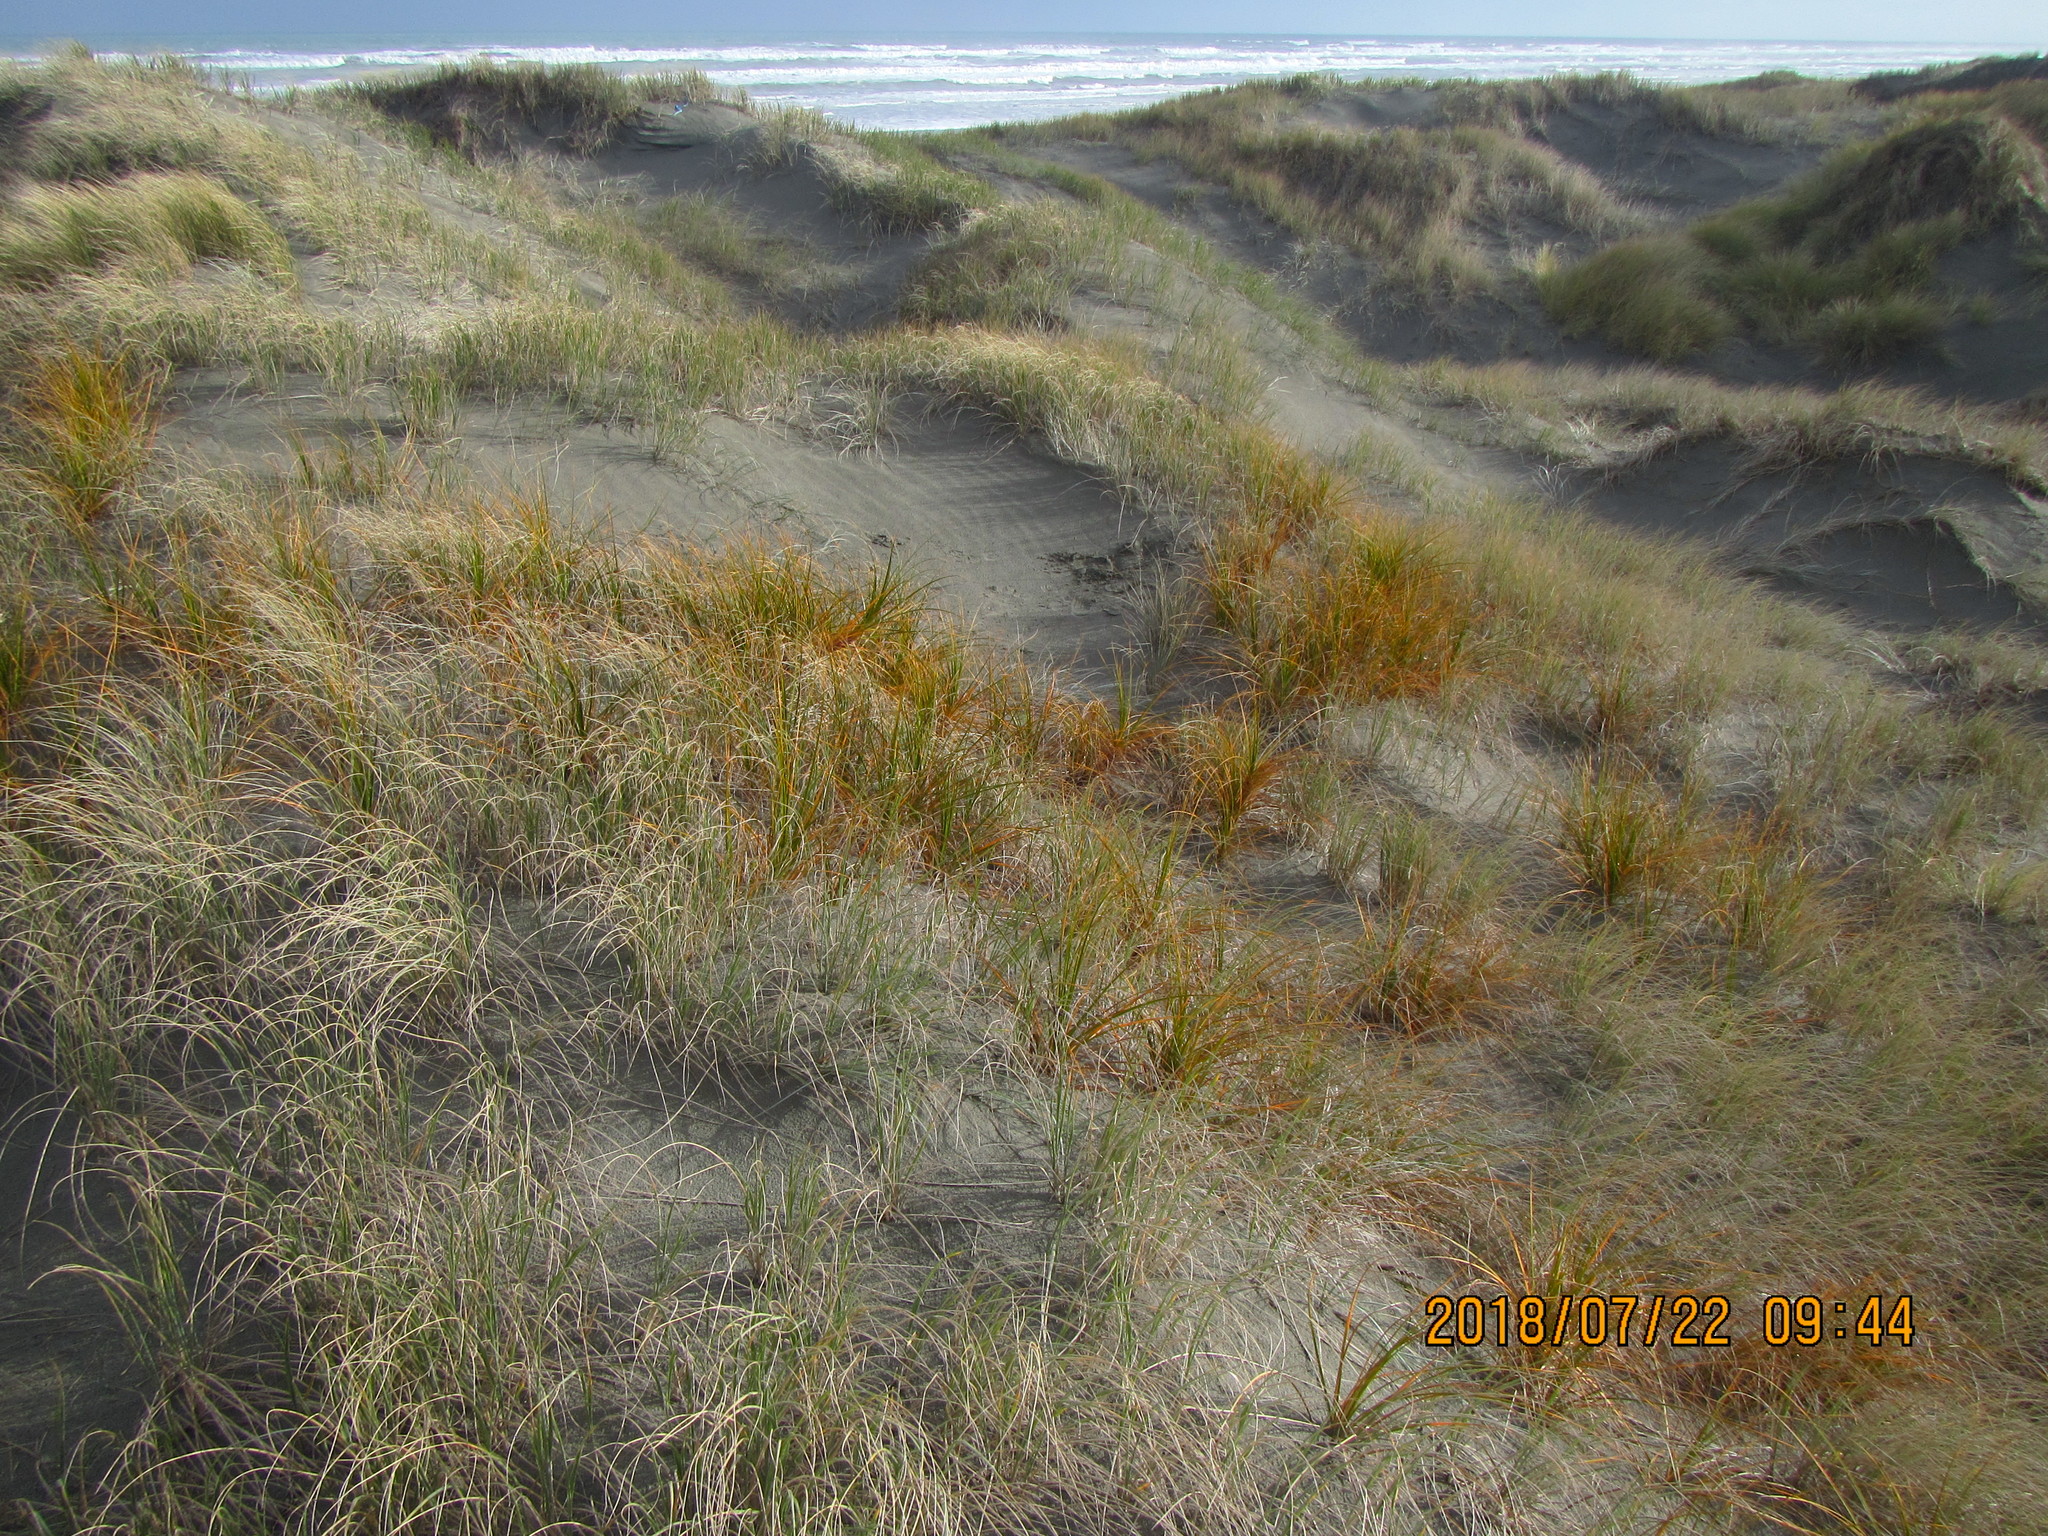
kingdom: Plantae
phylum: Tracheophyta
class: Liliopsida
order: Poales
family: Cyperaceae
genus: Ficinia
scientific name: Ficinia spiralis
